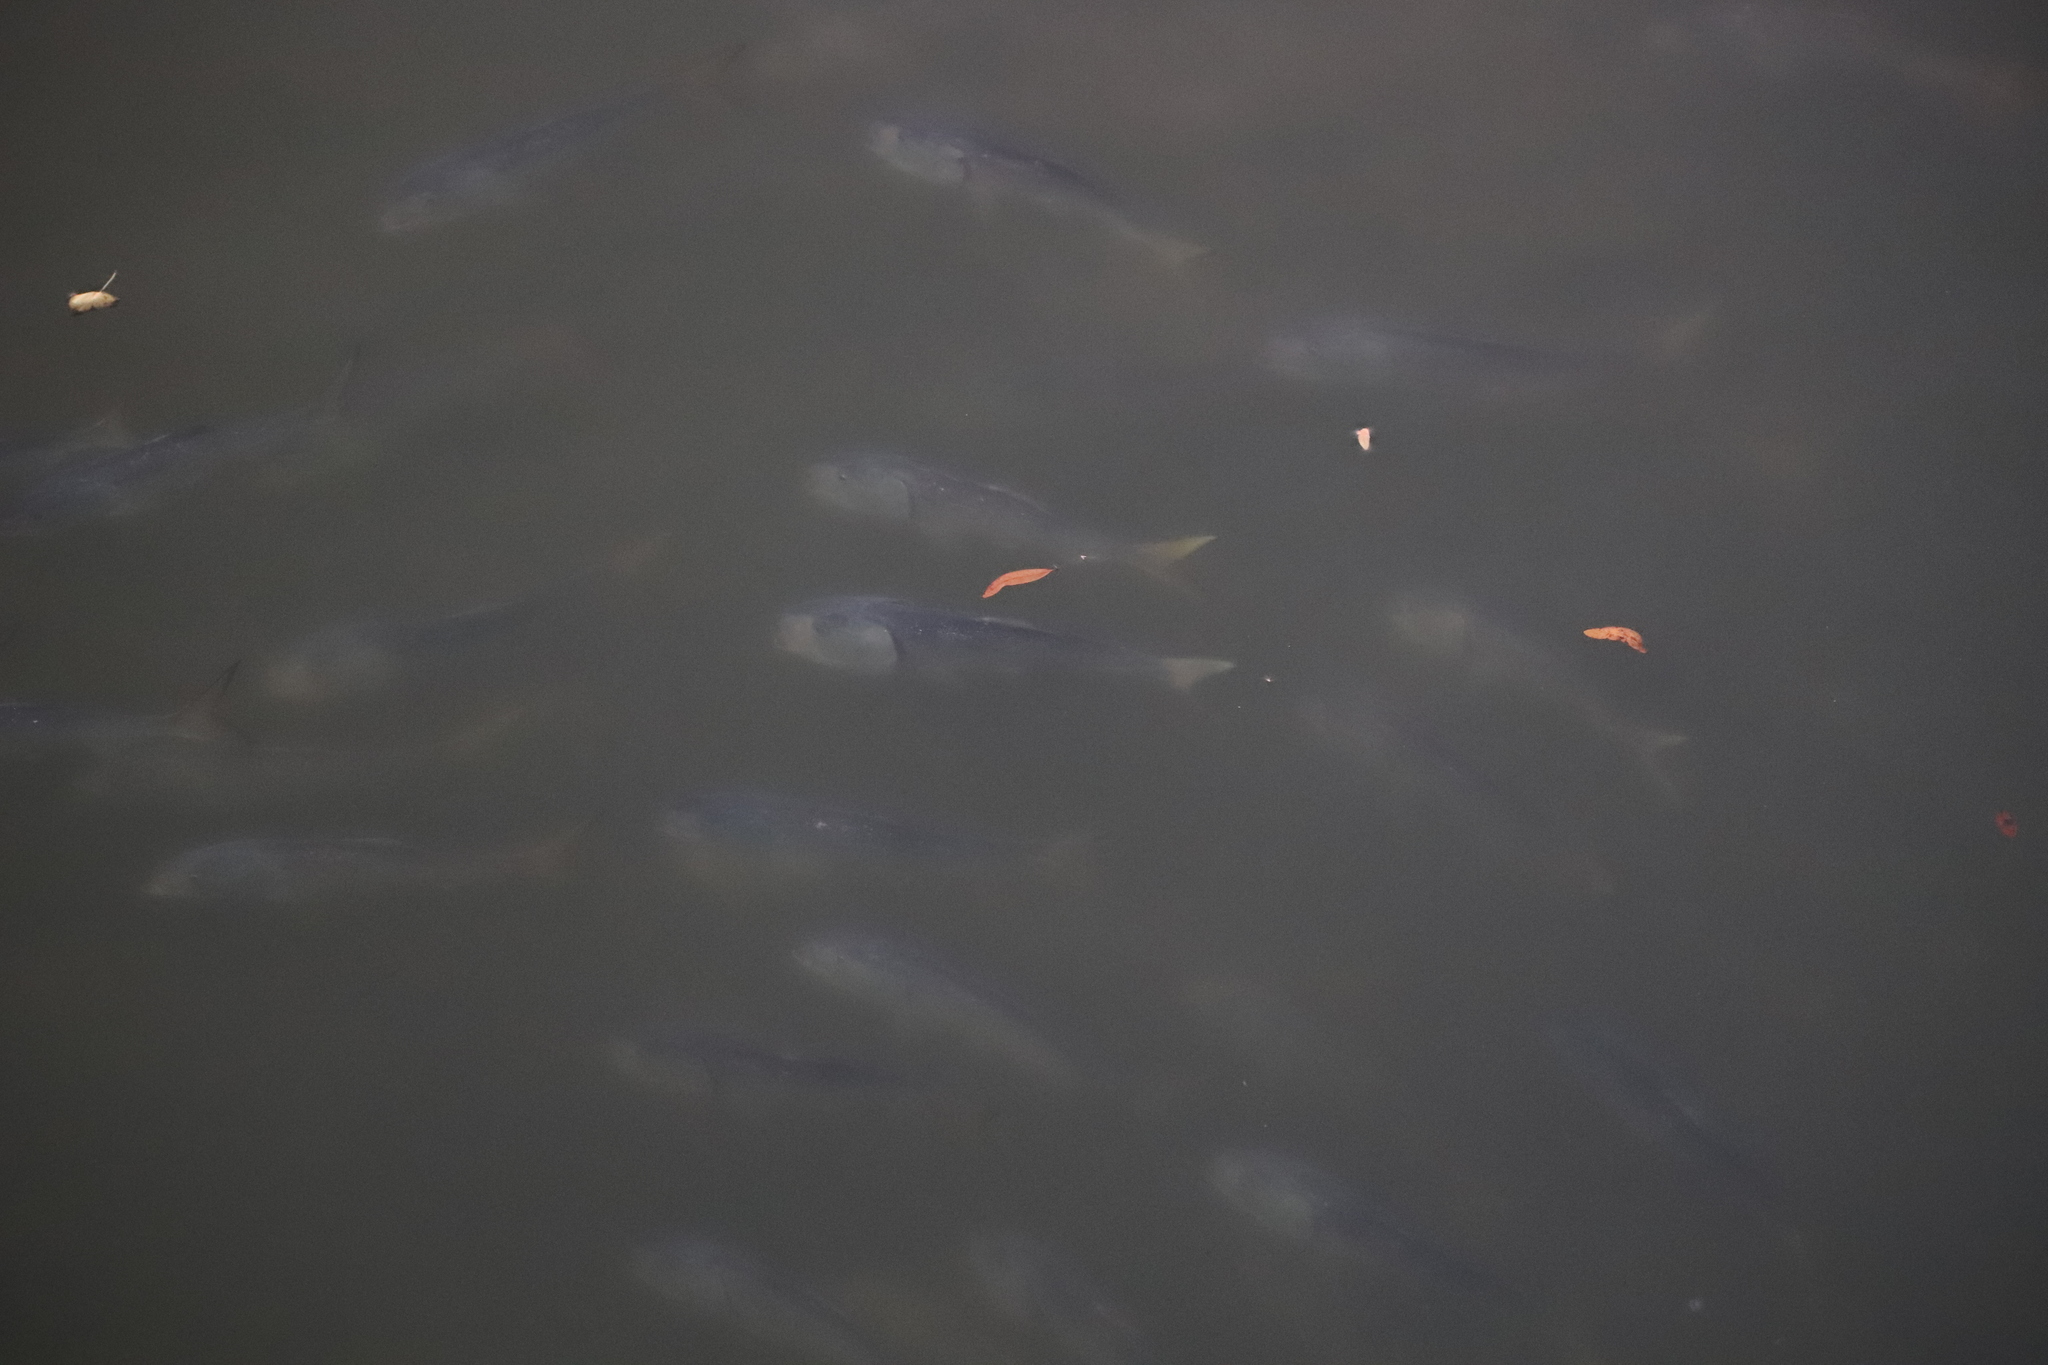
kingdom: Animalia
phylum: Chordata
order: Clupeiformes
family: Clupeidae
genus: Brevoortia
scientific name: Brevoortia tyrannus
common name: Atlantic menhaden
